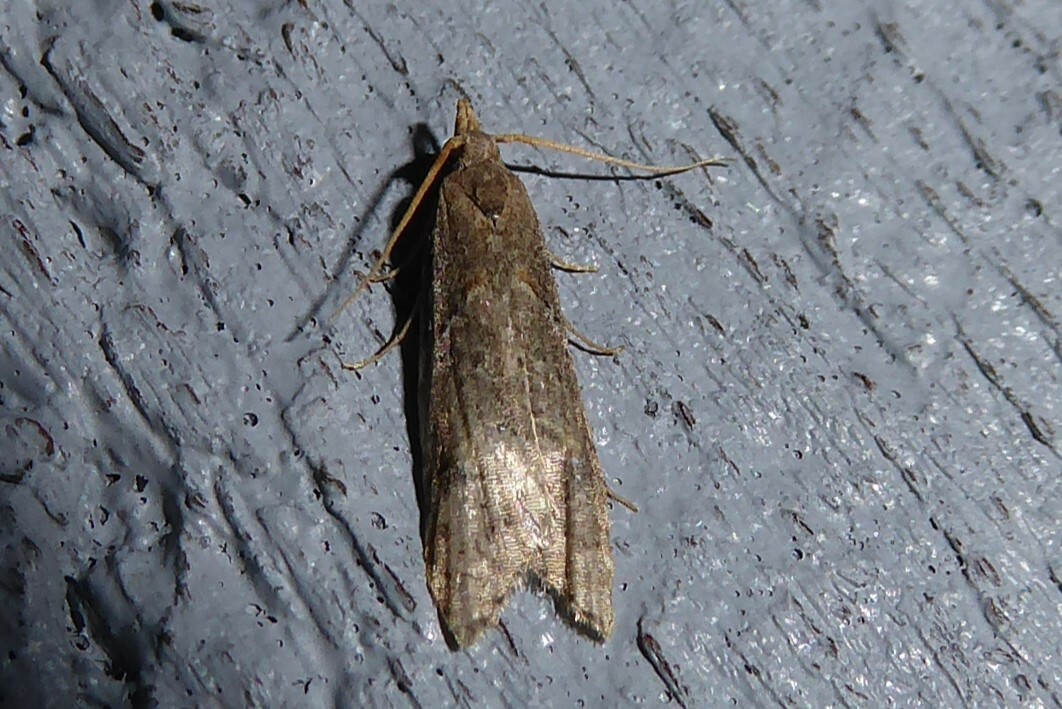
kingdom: Animalia
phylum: Arthropoda
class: Insecta
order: Lepidoptera
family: Carposinidae
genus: Carposina
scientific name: Carposina rubophaga
